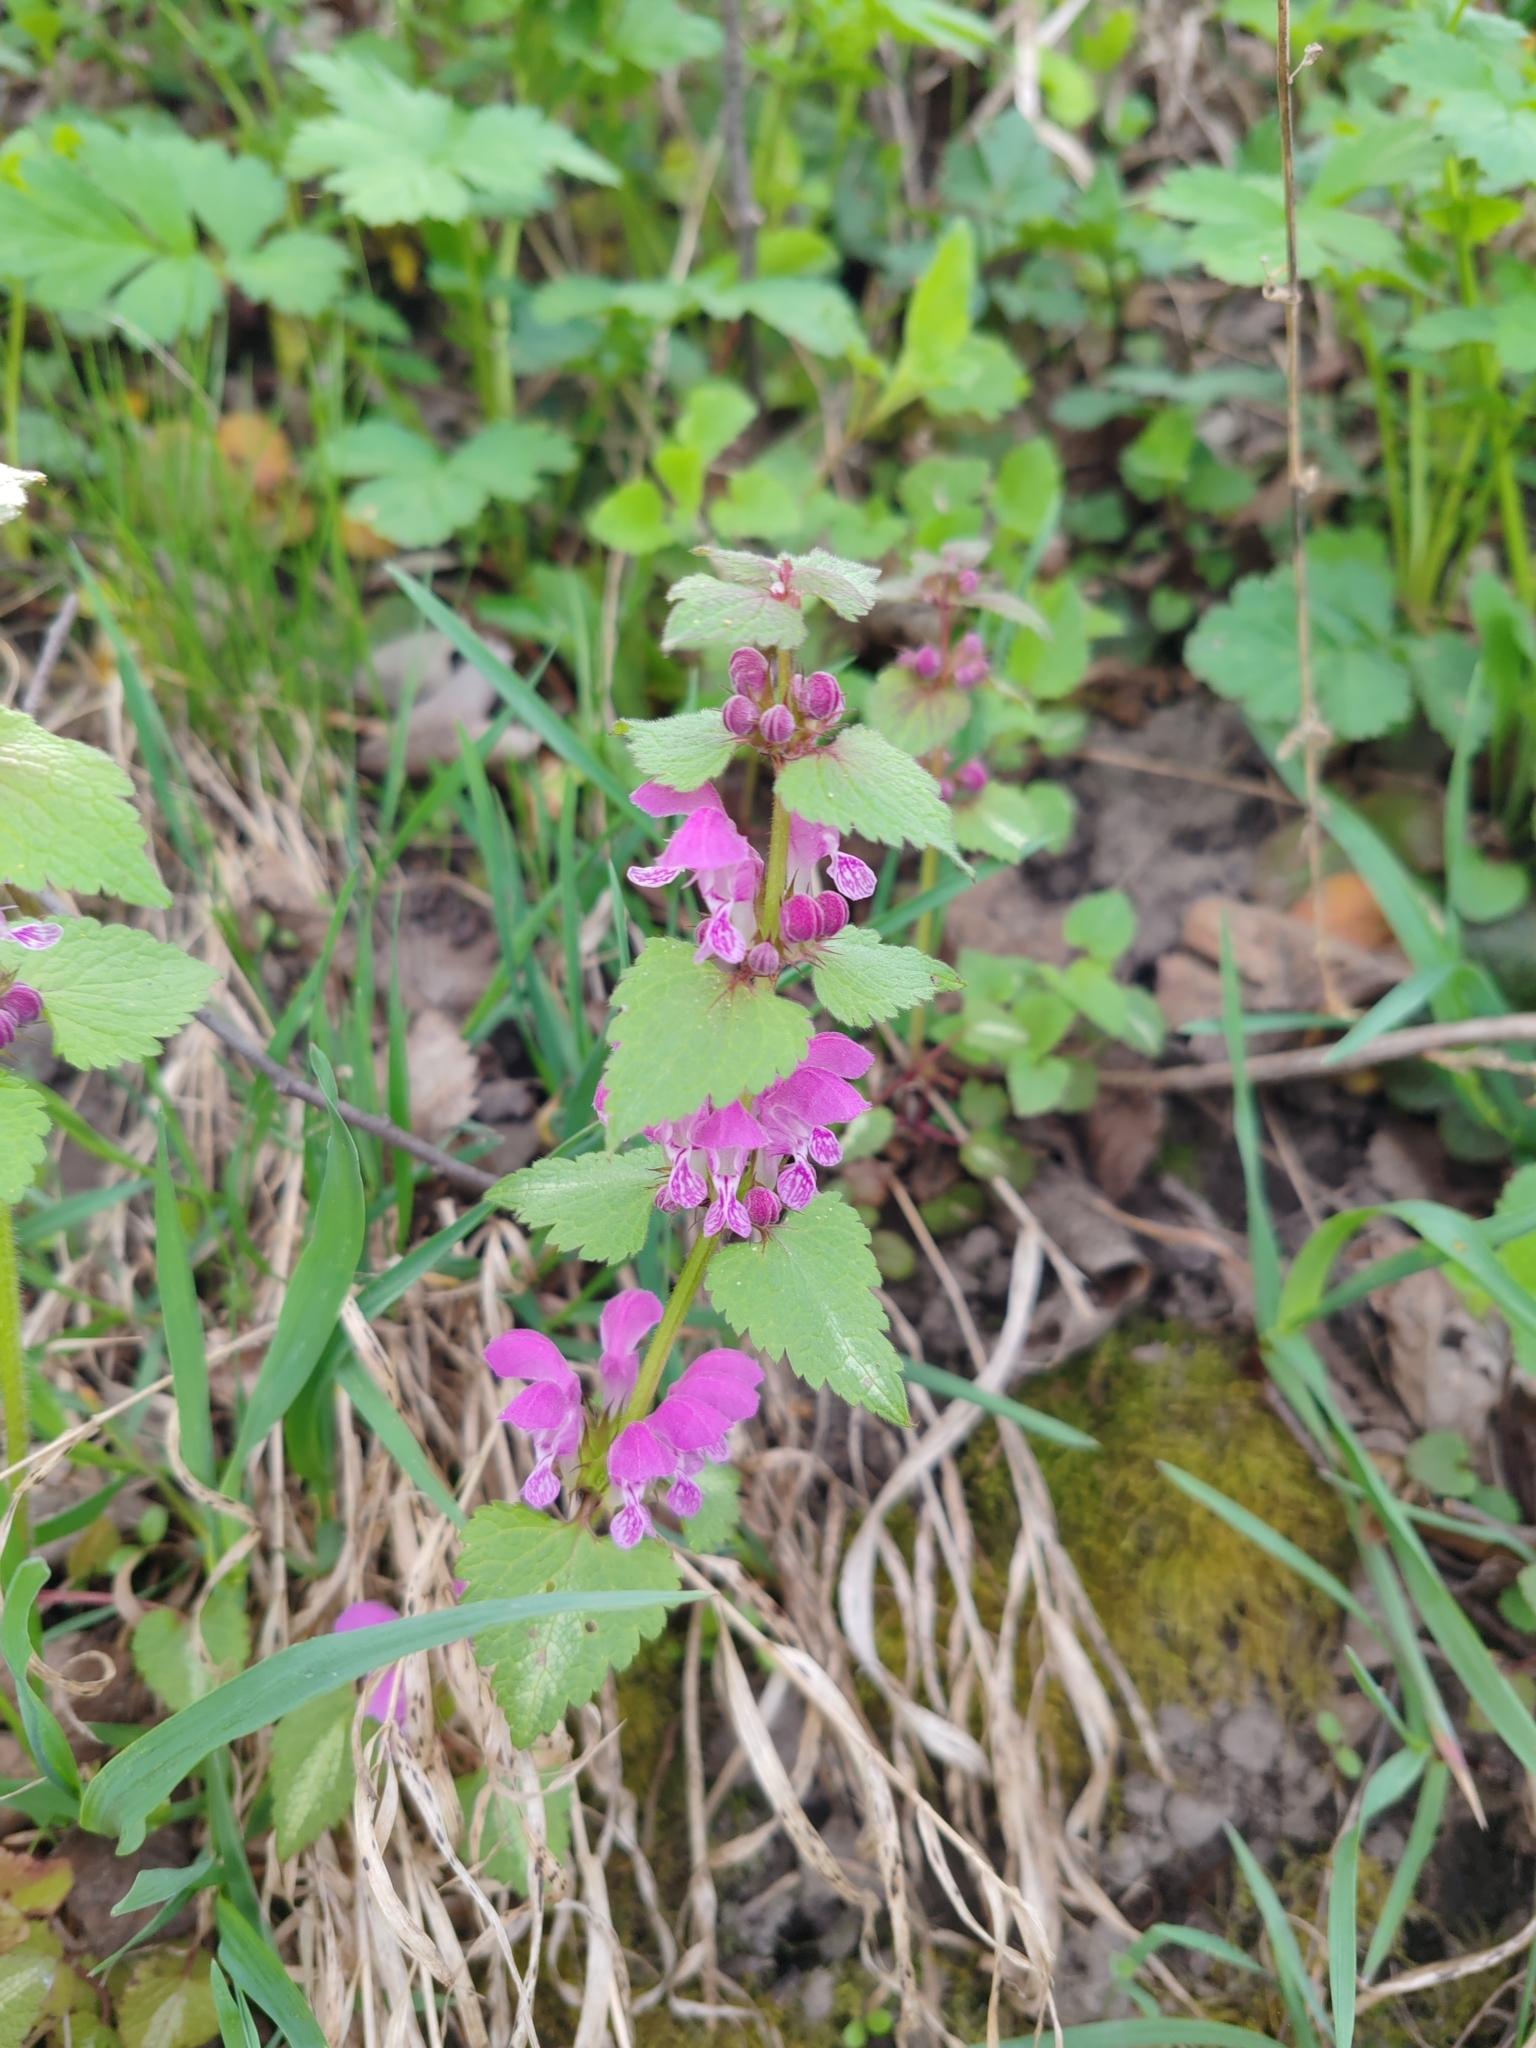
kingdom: Plantae
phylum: Tracheophyta
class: Magnoliopsida
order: Lamiales
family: Lamiaceae
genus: Lamium
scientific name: Lamium maculatum
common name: Spotted dead-nettle
